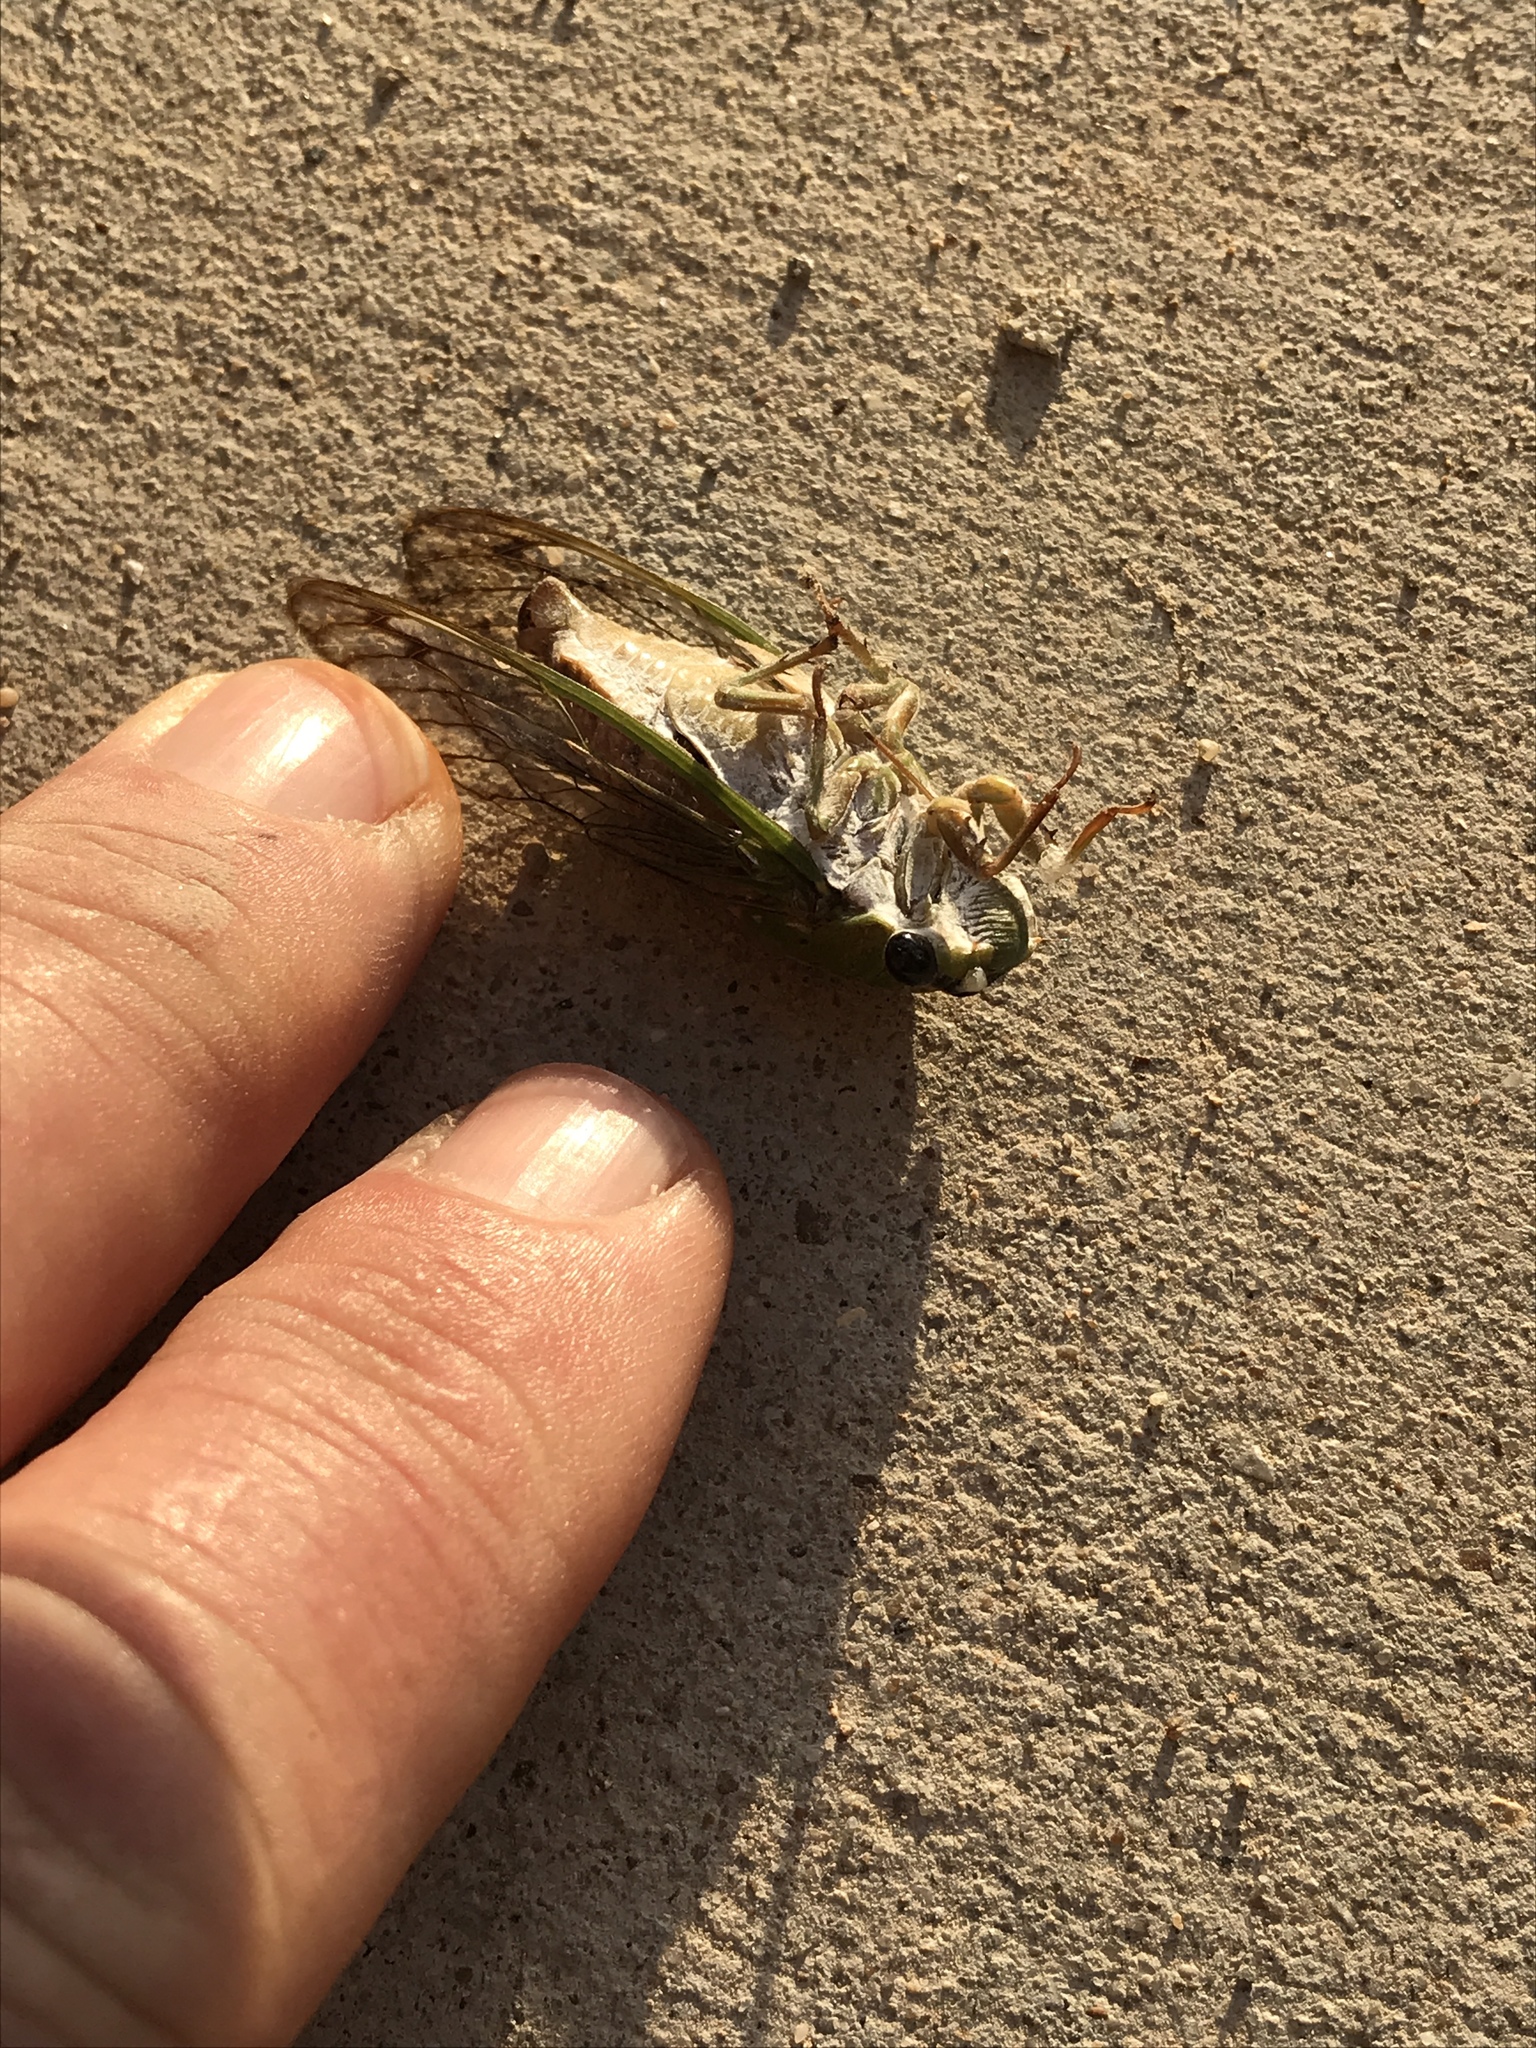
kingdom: Animalia
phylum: Arthropoda
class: Insecta
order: Hemiptera
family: Cicadidae
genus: Neotibicen
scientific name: Neotibicen superbus
